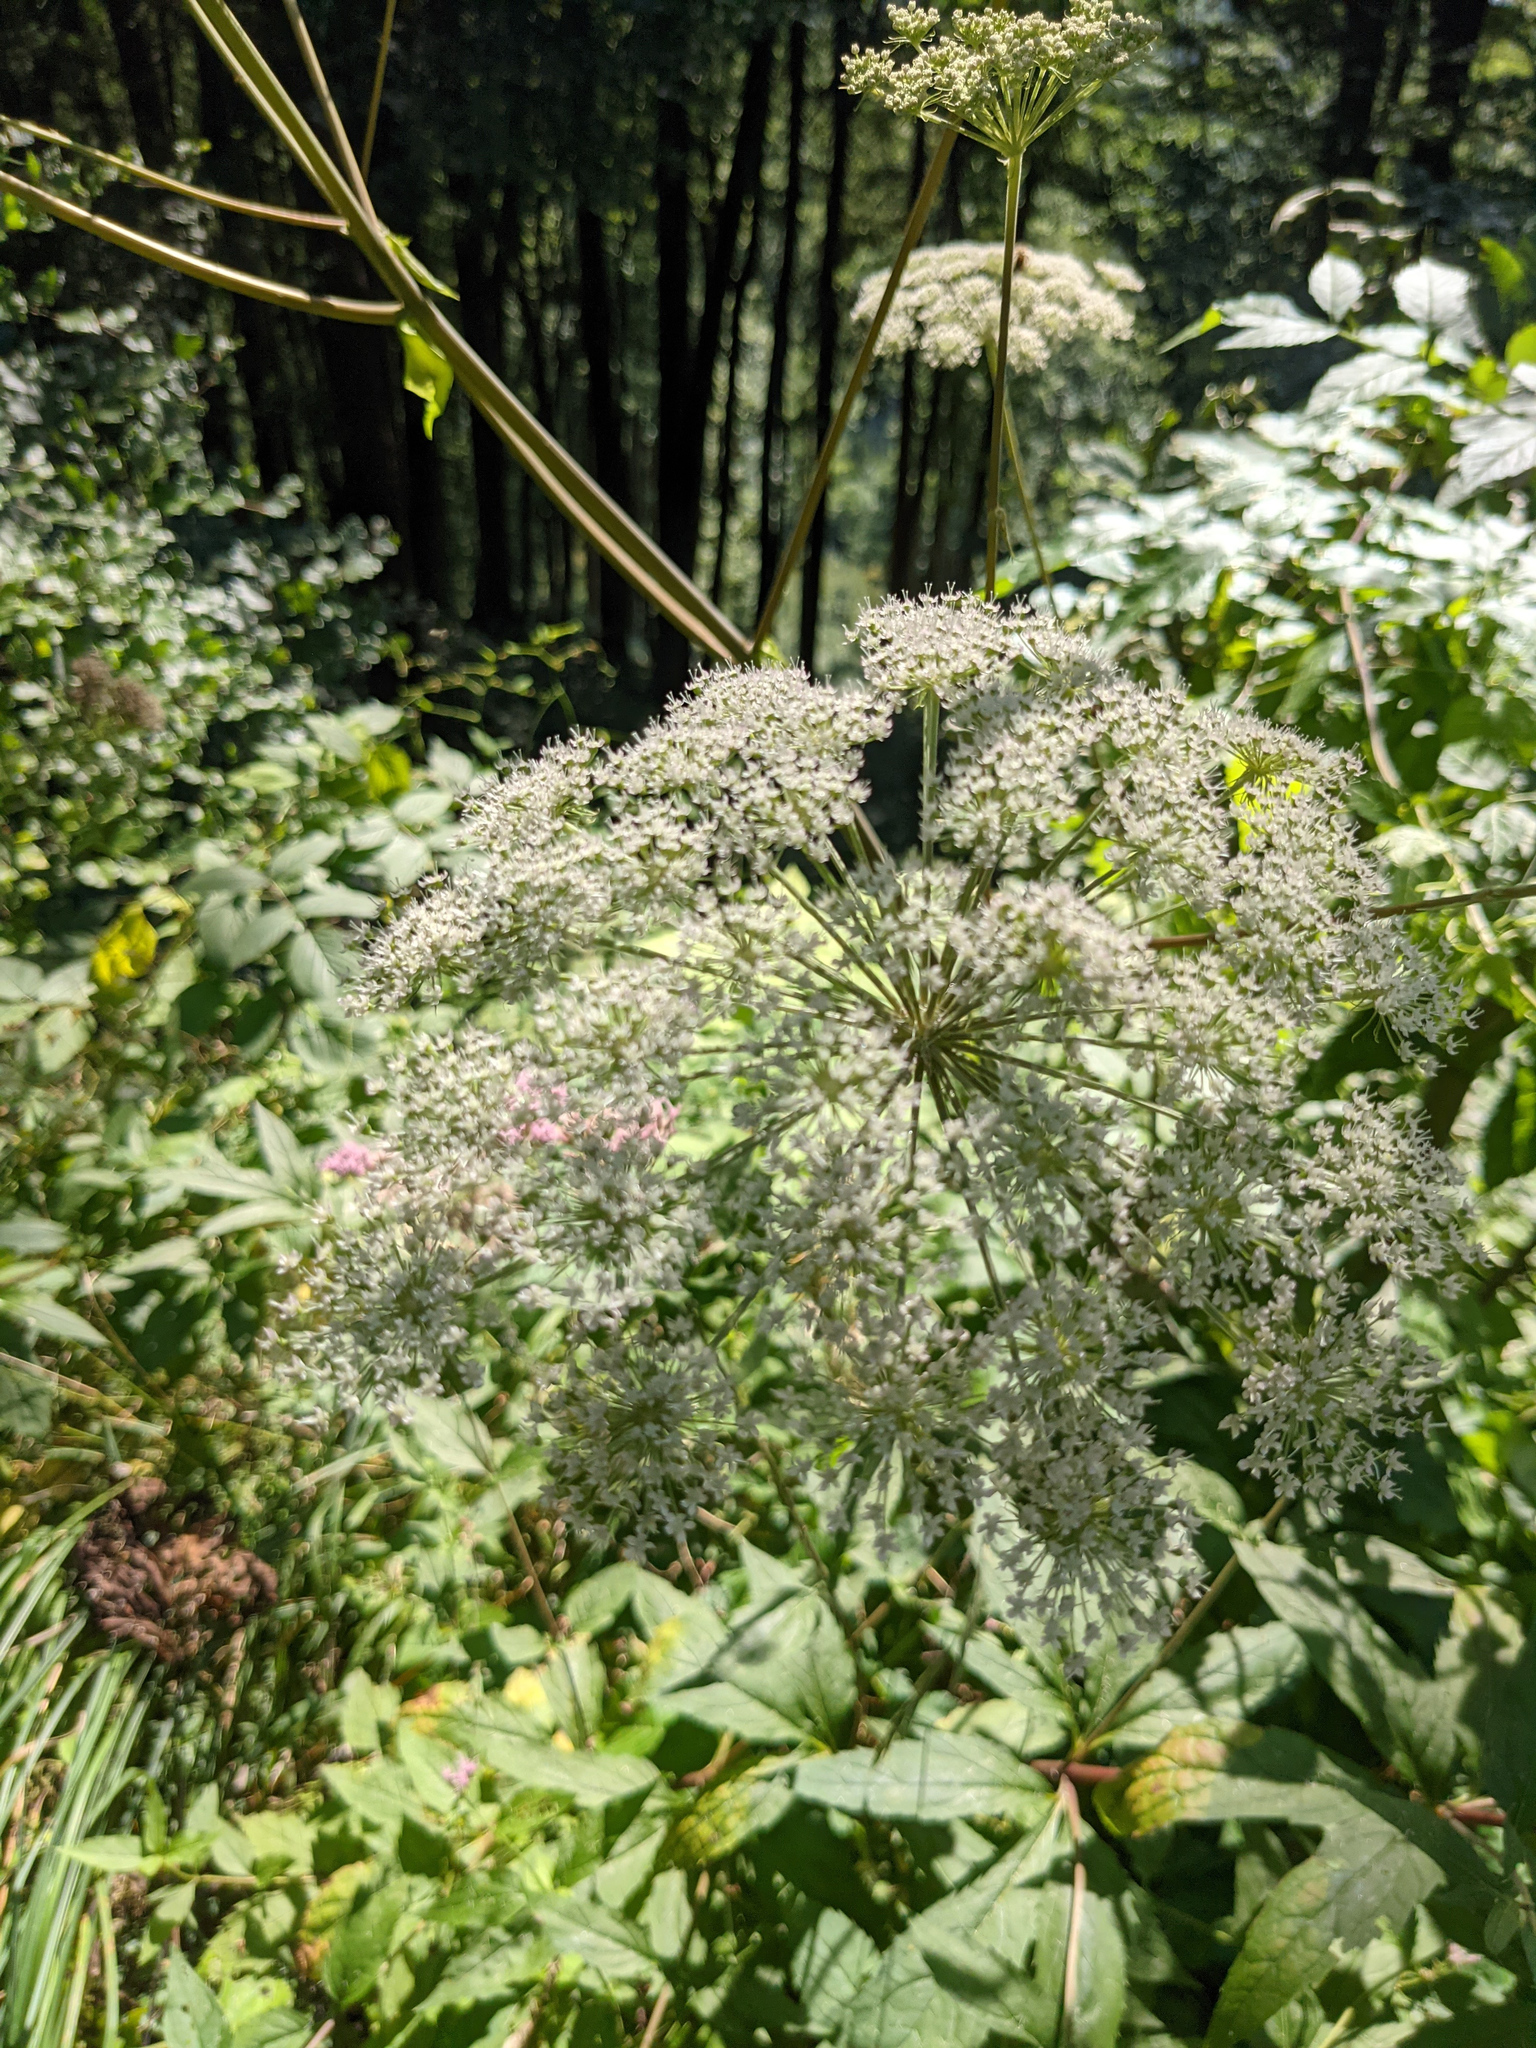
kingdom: Plantae
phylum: Tracheophyta
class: Magnoliopsida
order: Apiales
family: Apiaceae
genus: Angelica
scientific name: Angelica sylvestris
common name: Wild angelica
